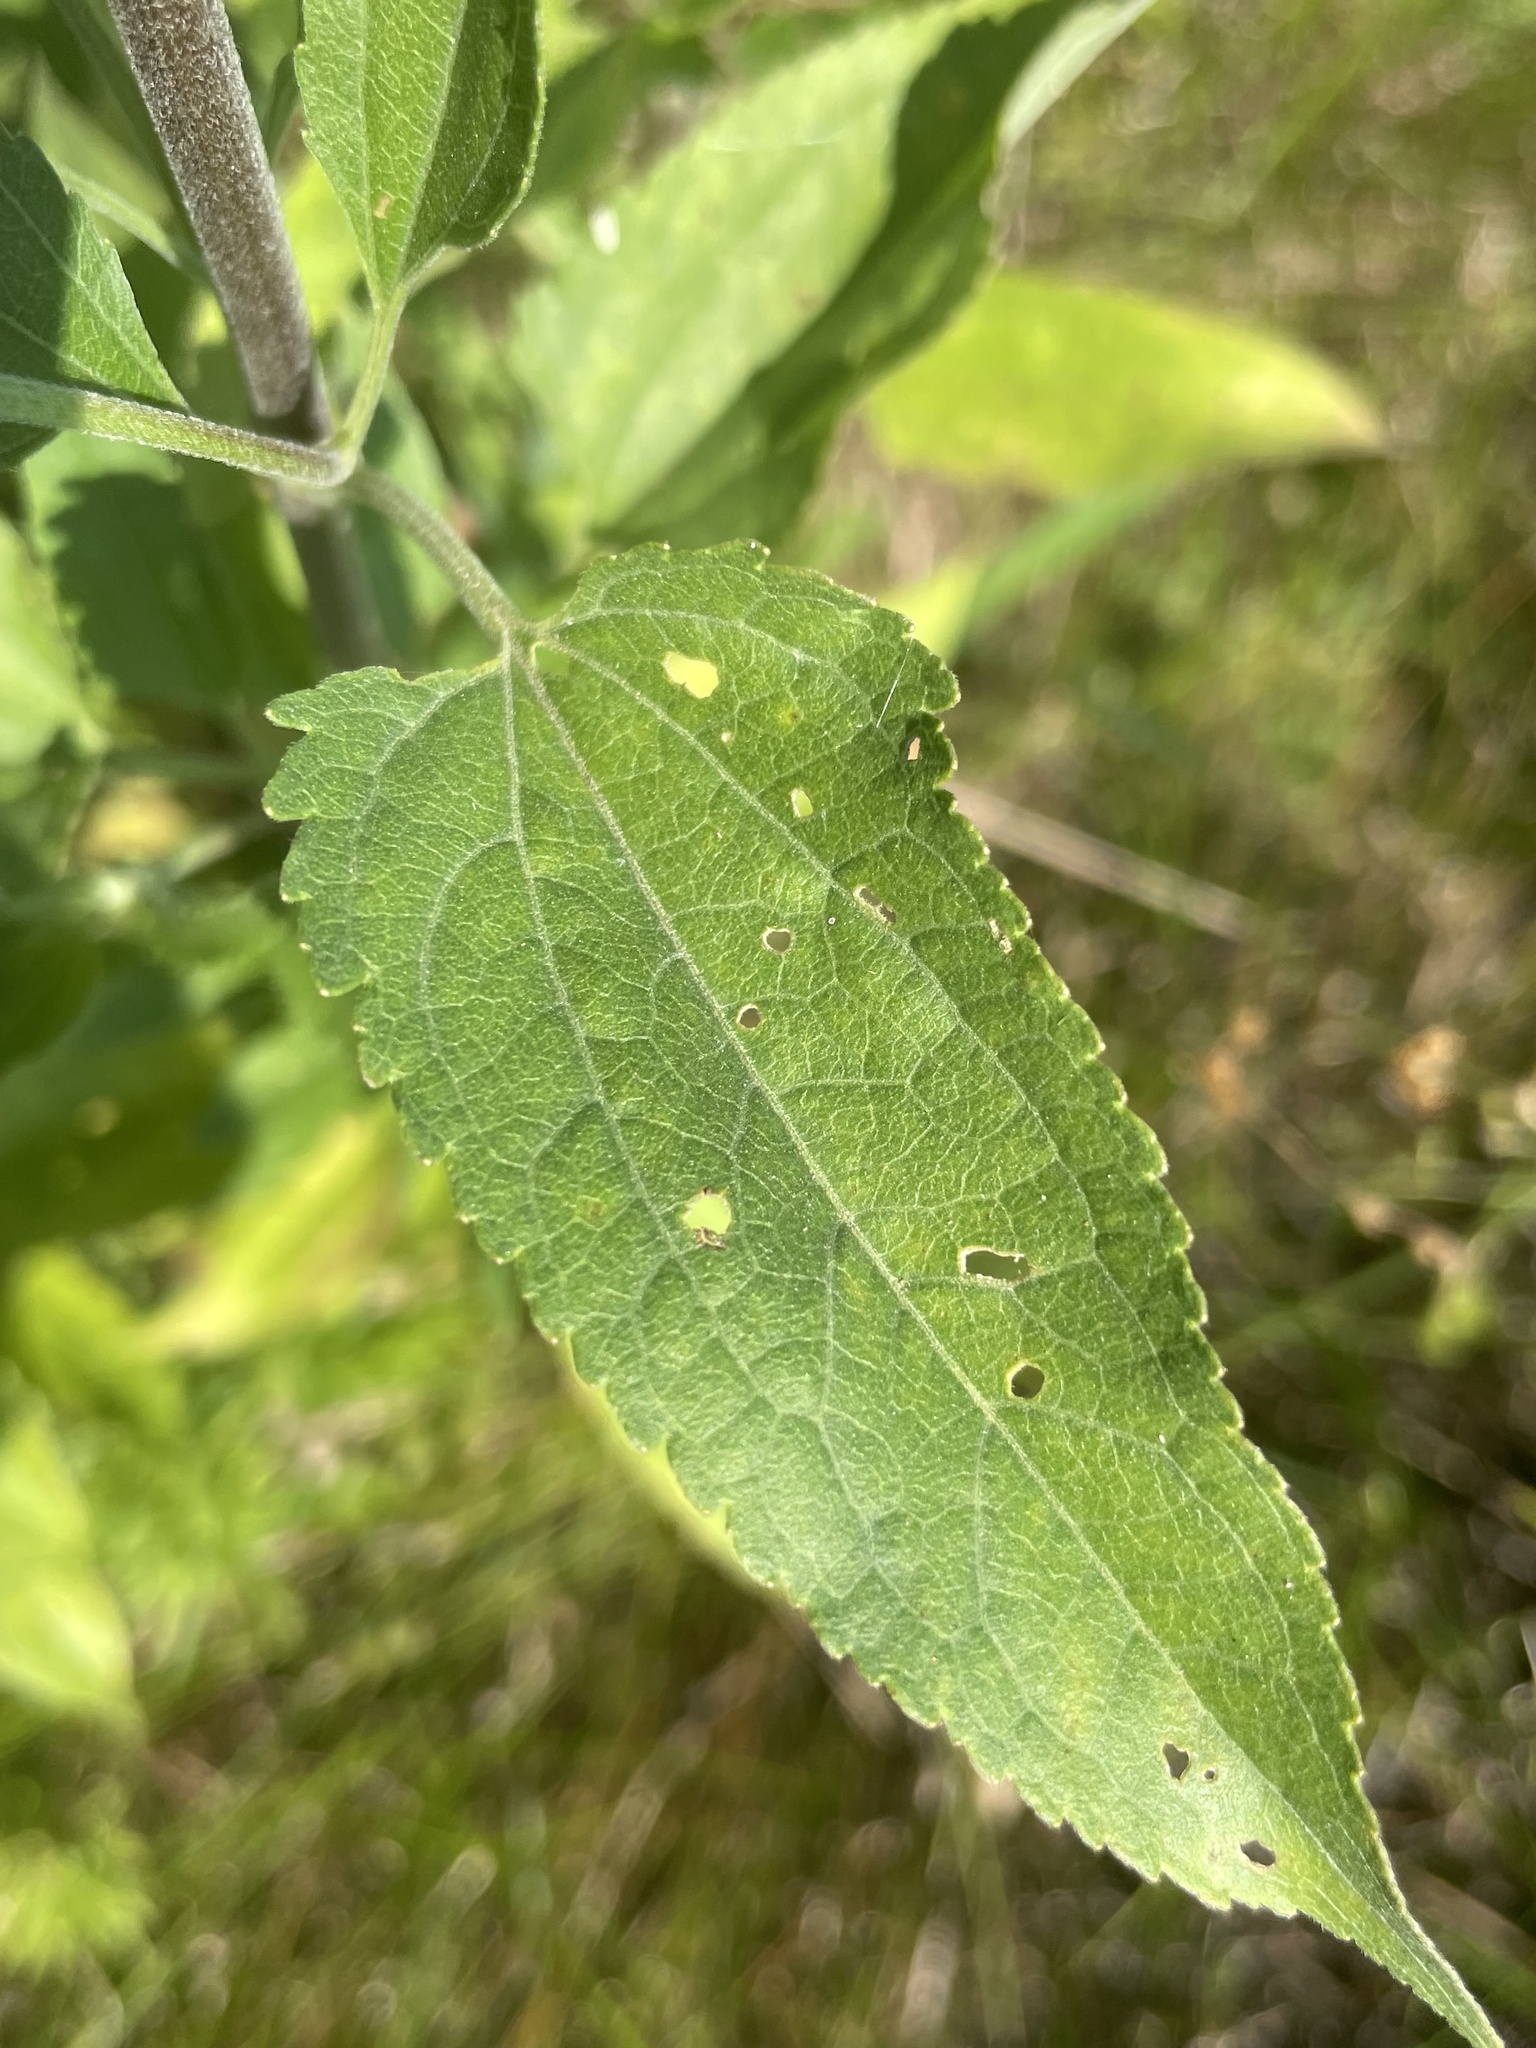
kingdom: Plantae
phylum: Tracheophyta
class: Magnoliopsida
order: Asterales
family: Asteraceae
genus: Eupatorium
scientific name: Eupatorium serotinum
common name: Late boneset
